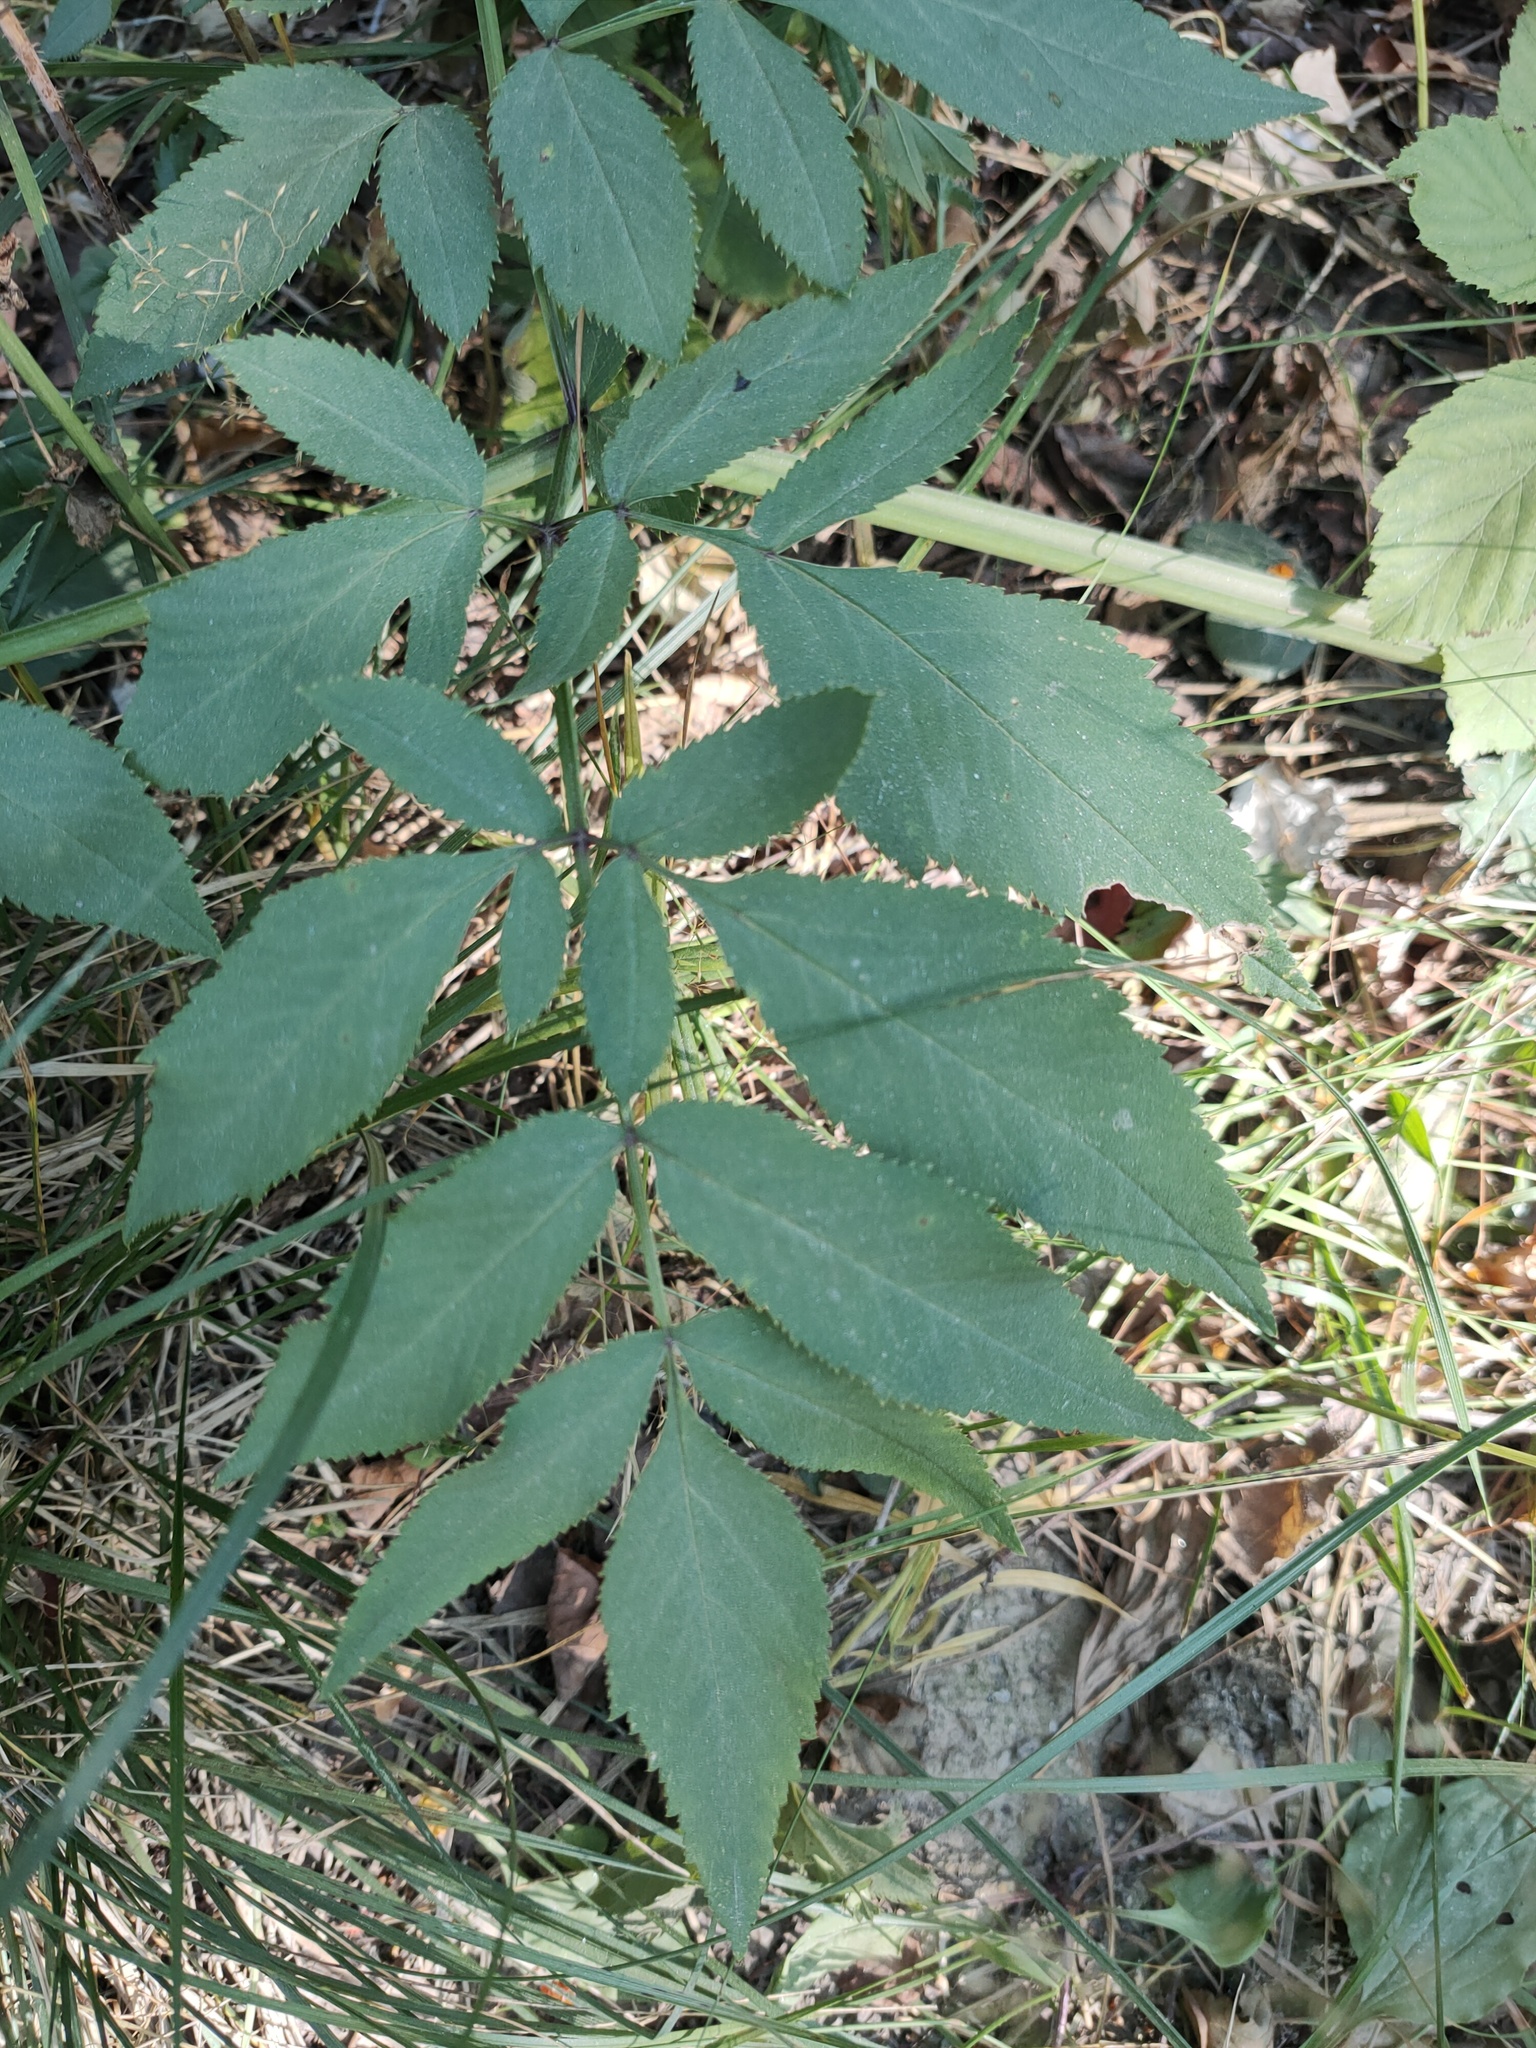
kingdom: Plantae
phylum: Tracheophyta
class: Magnoliopsida
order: Apiales
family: Apiaceae
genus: Angelica
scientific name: Angelica sylvestris
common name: Wild angelica
